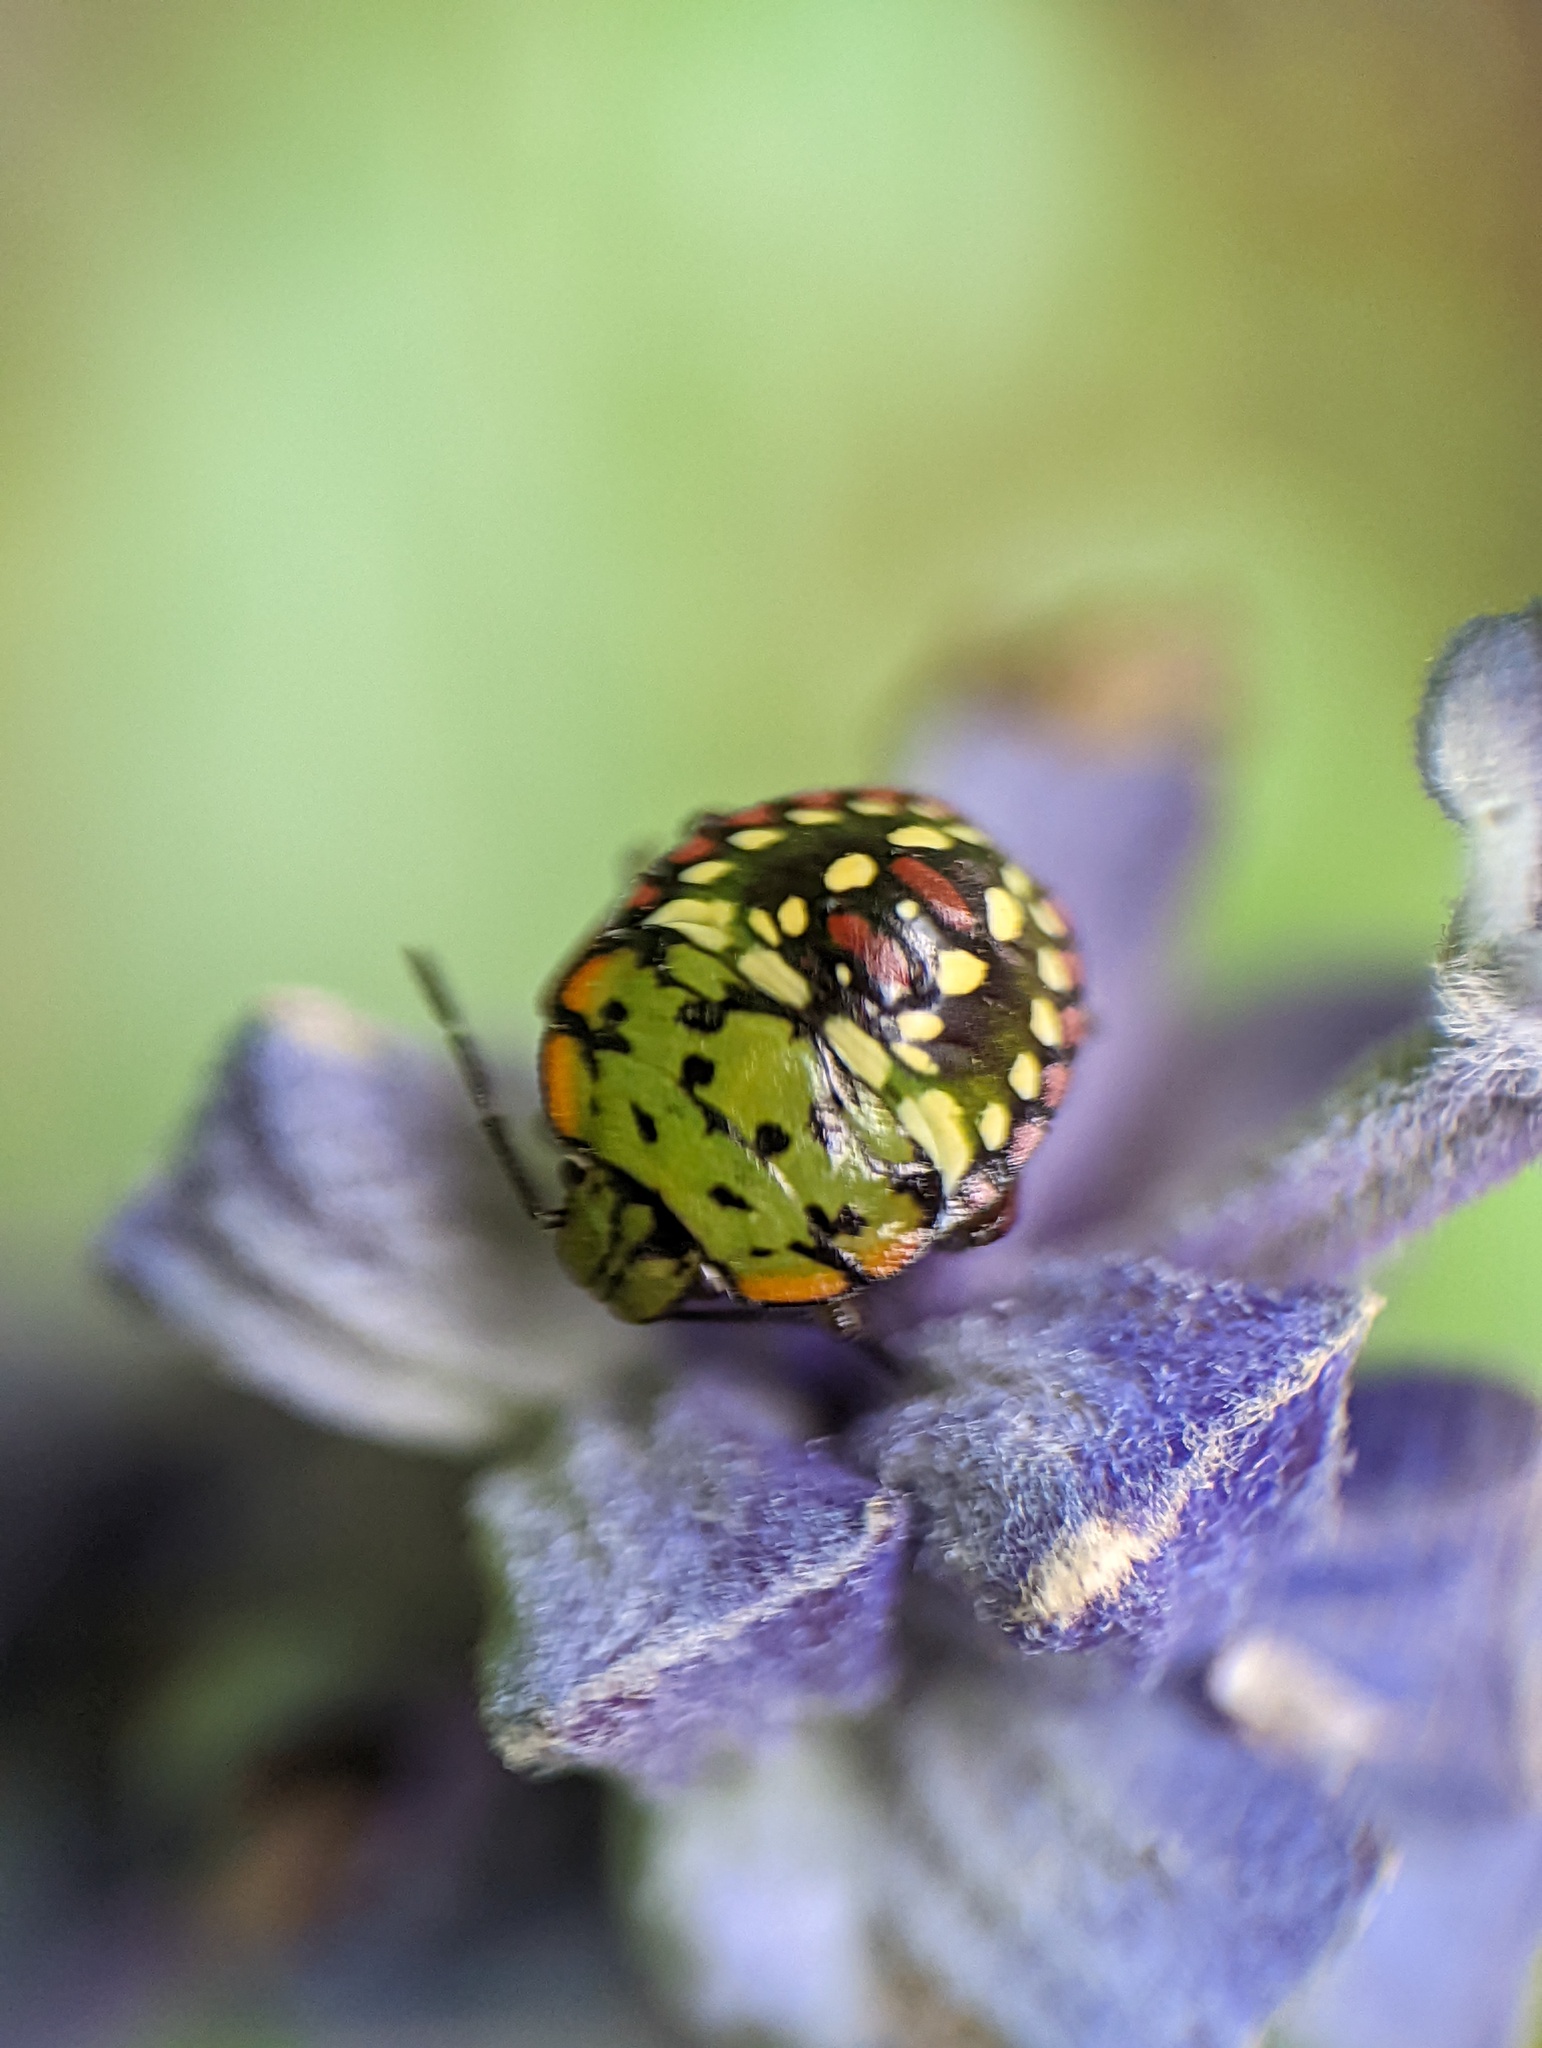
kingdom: Animalia
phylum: Arthropoda
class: Insecta
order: Hemiptera
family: Pentatomidae
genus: Nezara
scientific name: Nezara viridula
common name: Southern green stink bug
